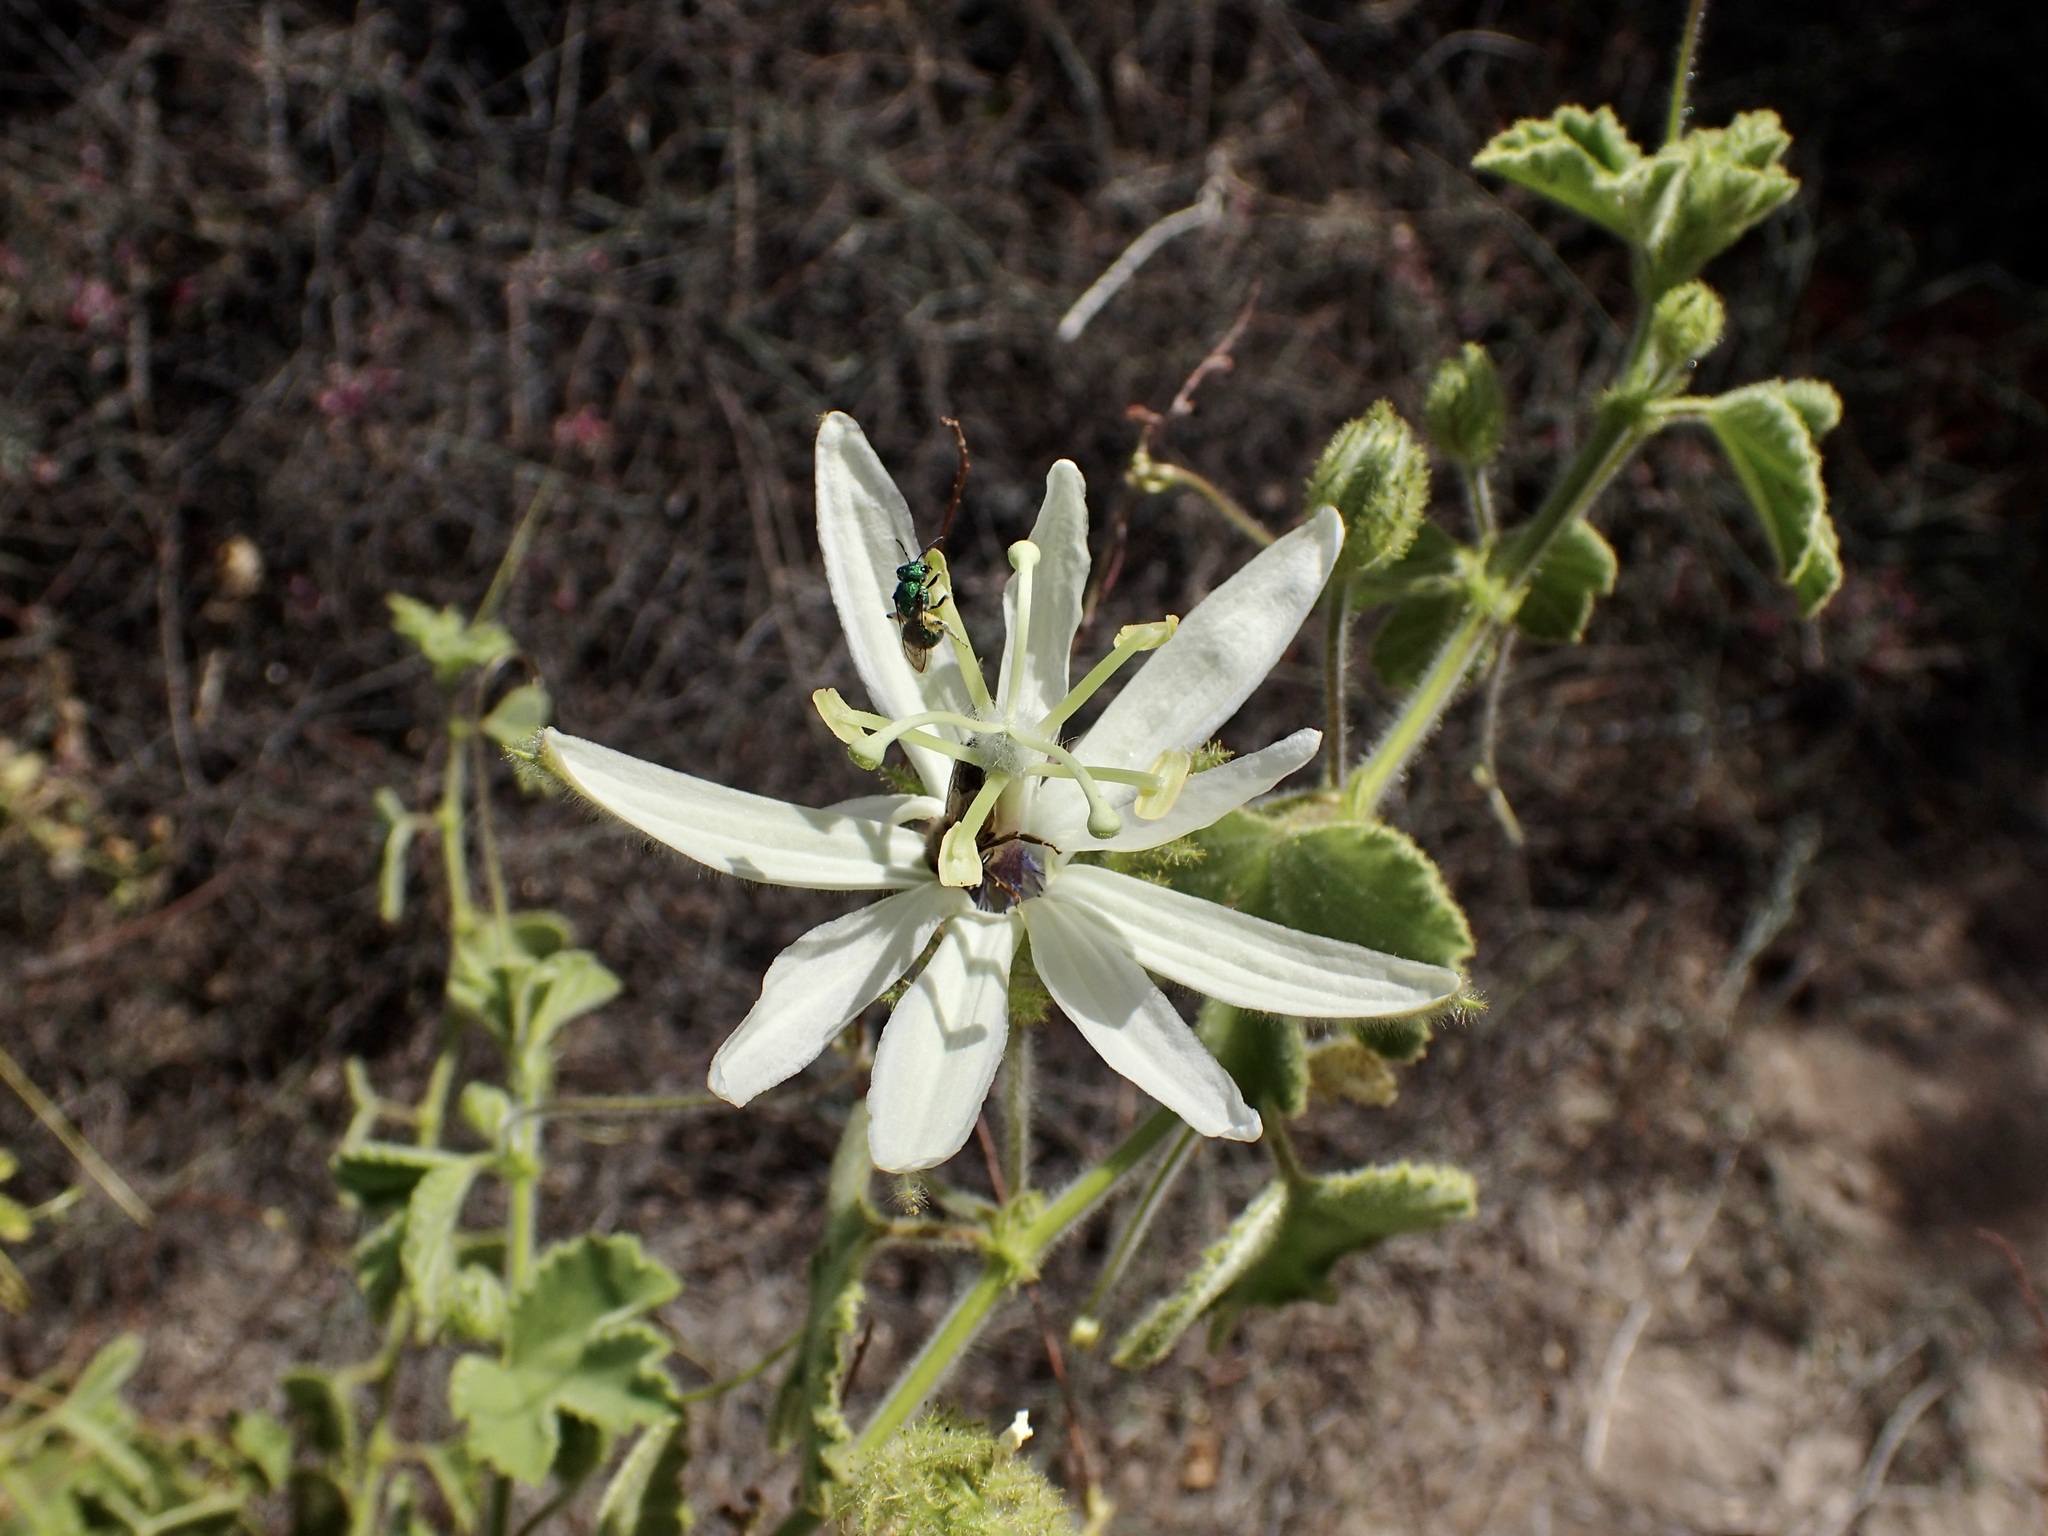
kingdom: Plantae
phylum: Tracheophyta
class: Magnoliopsida
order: Malpighiales
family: Passifloraceae
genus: Passiflora
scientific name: Passiflora palmeri
